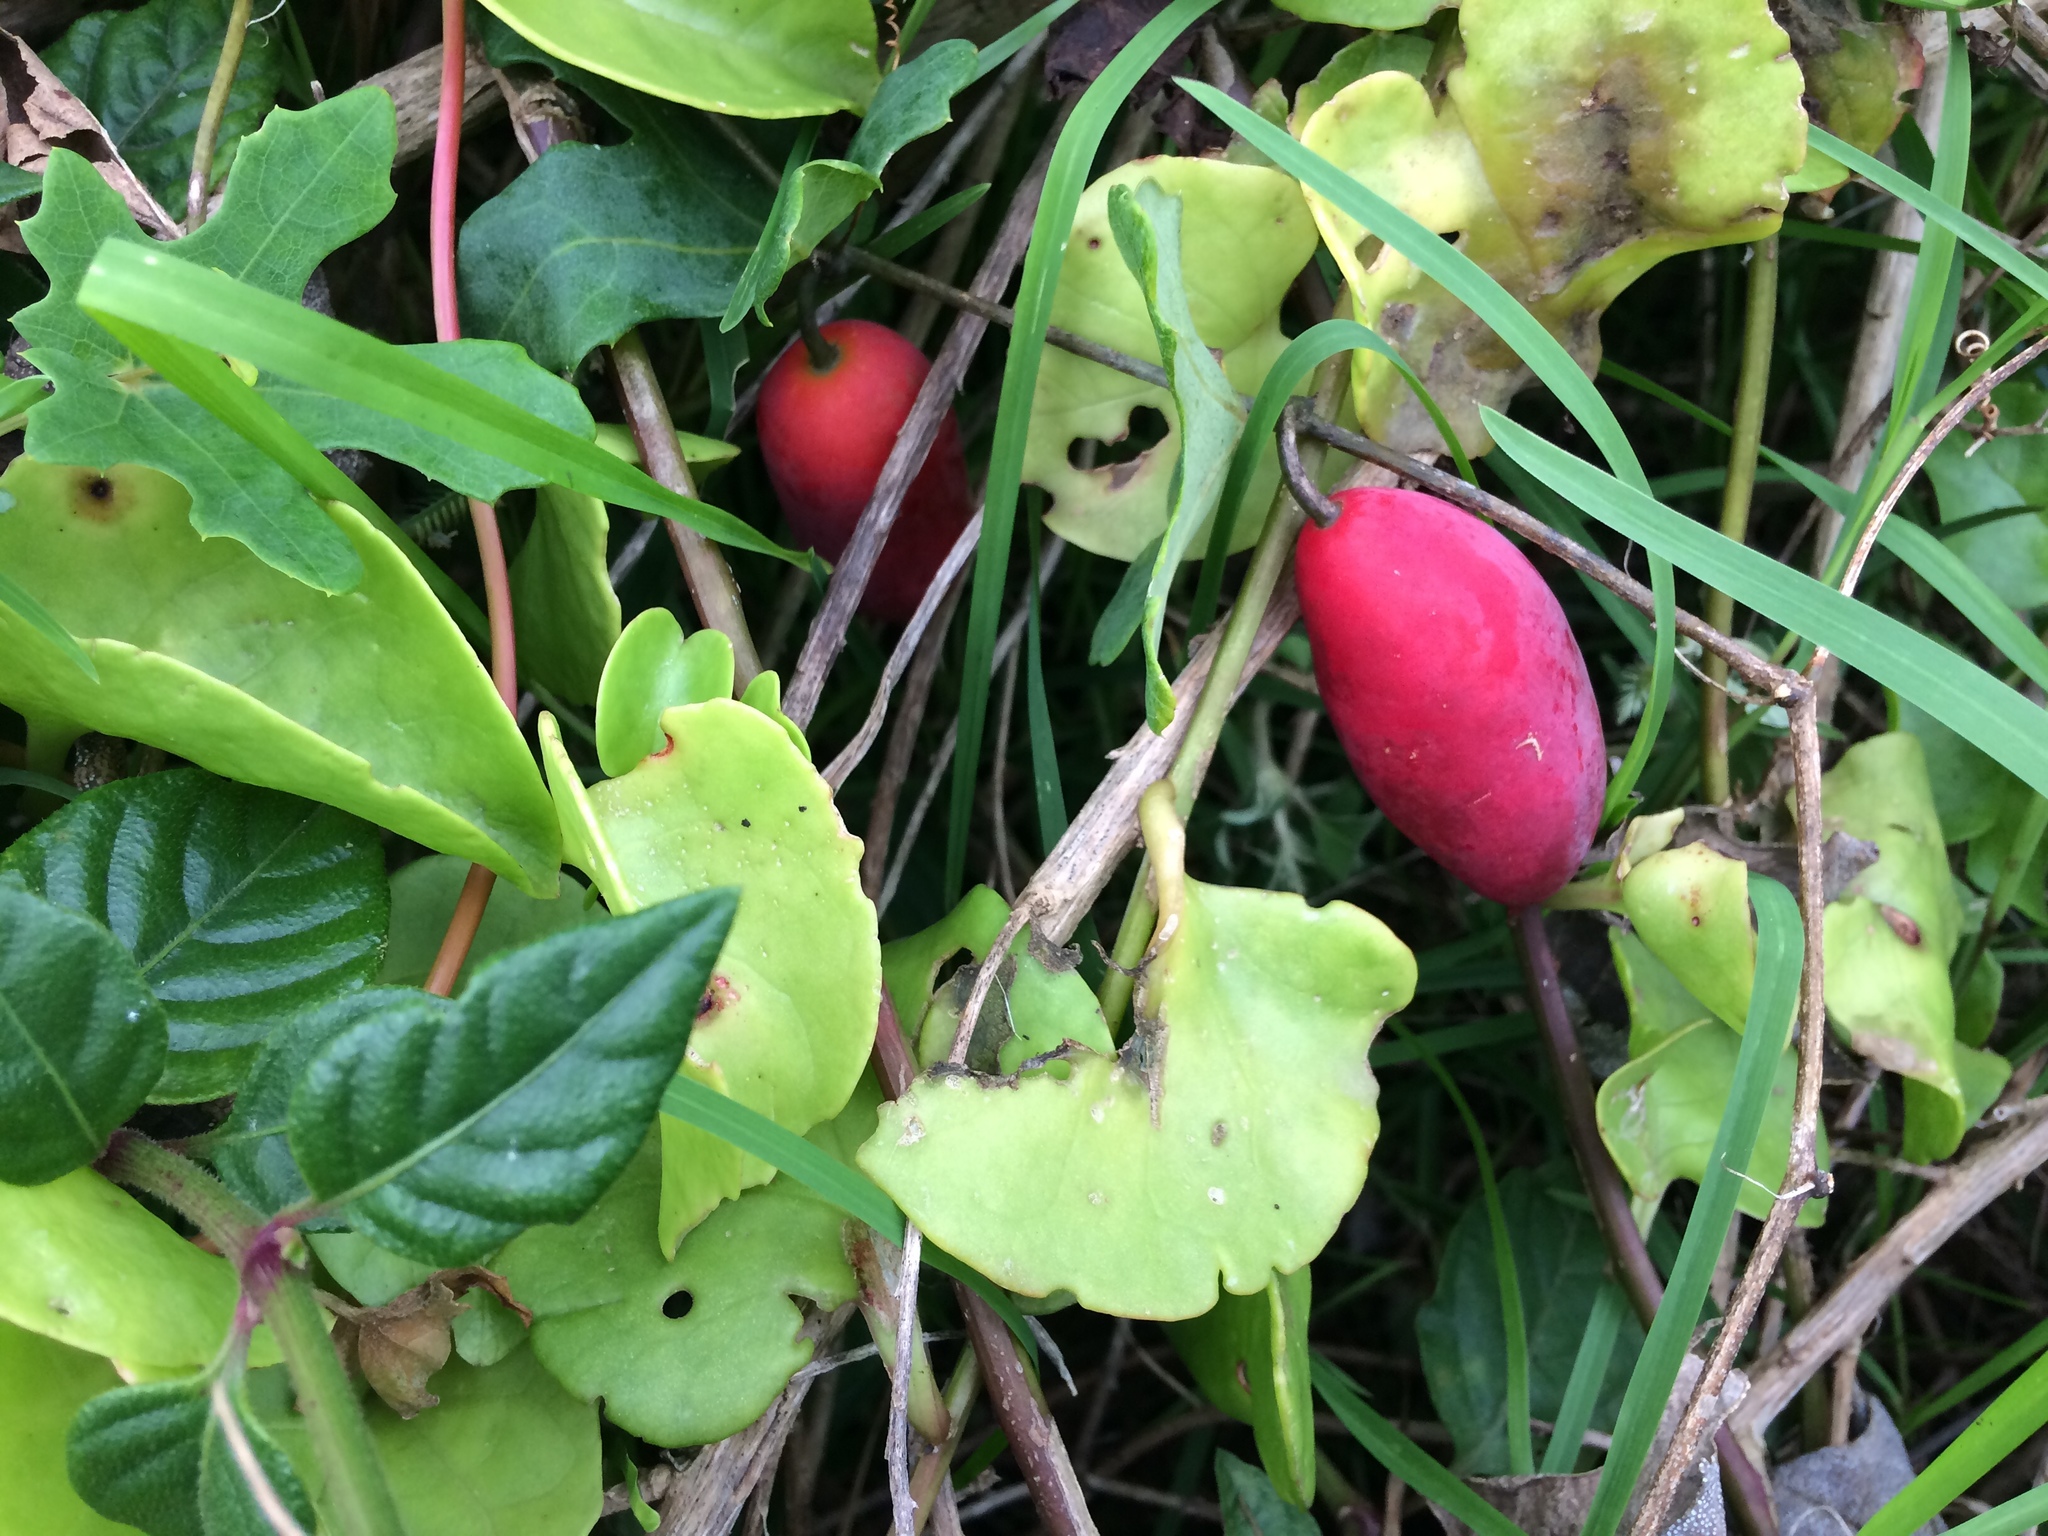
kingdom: Plantae
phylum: Tracheophyta
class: Magnoliopsida
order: Cucurbitales
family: Cucurbitaceae
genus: Coccinia
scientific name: Coccinia quinqueloba
